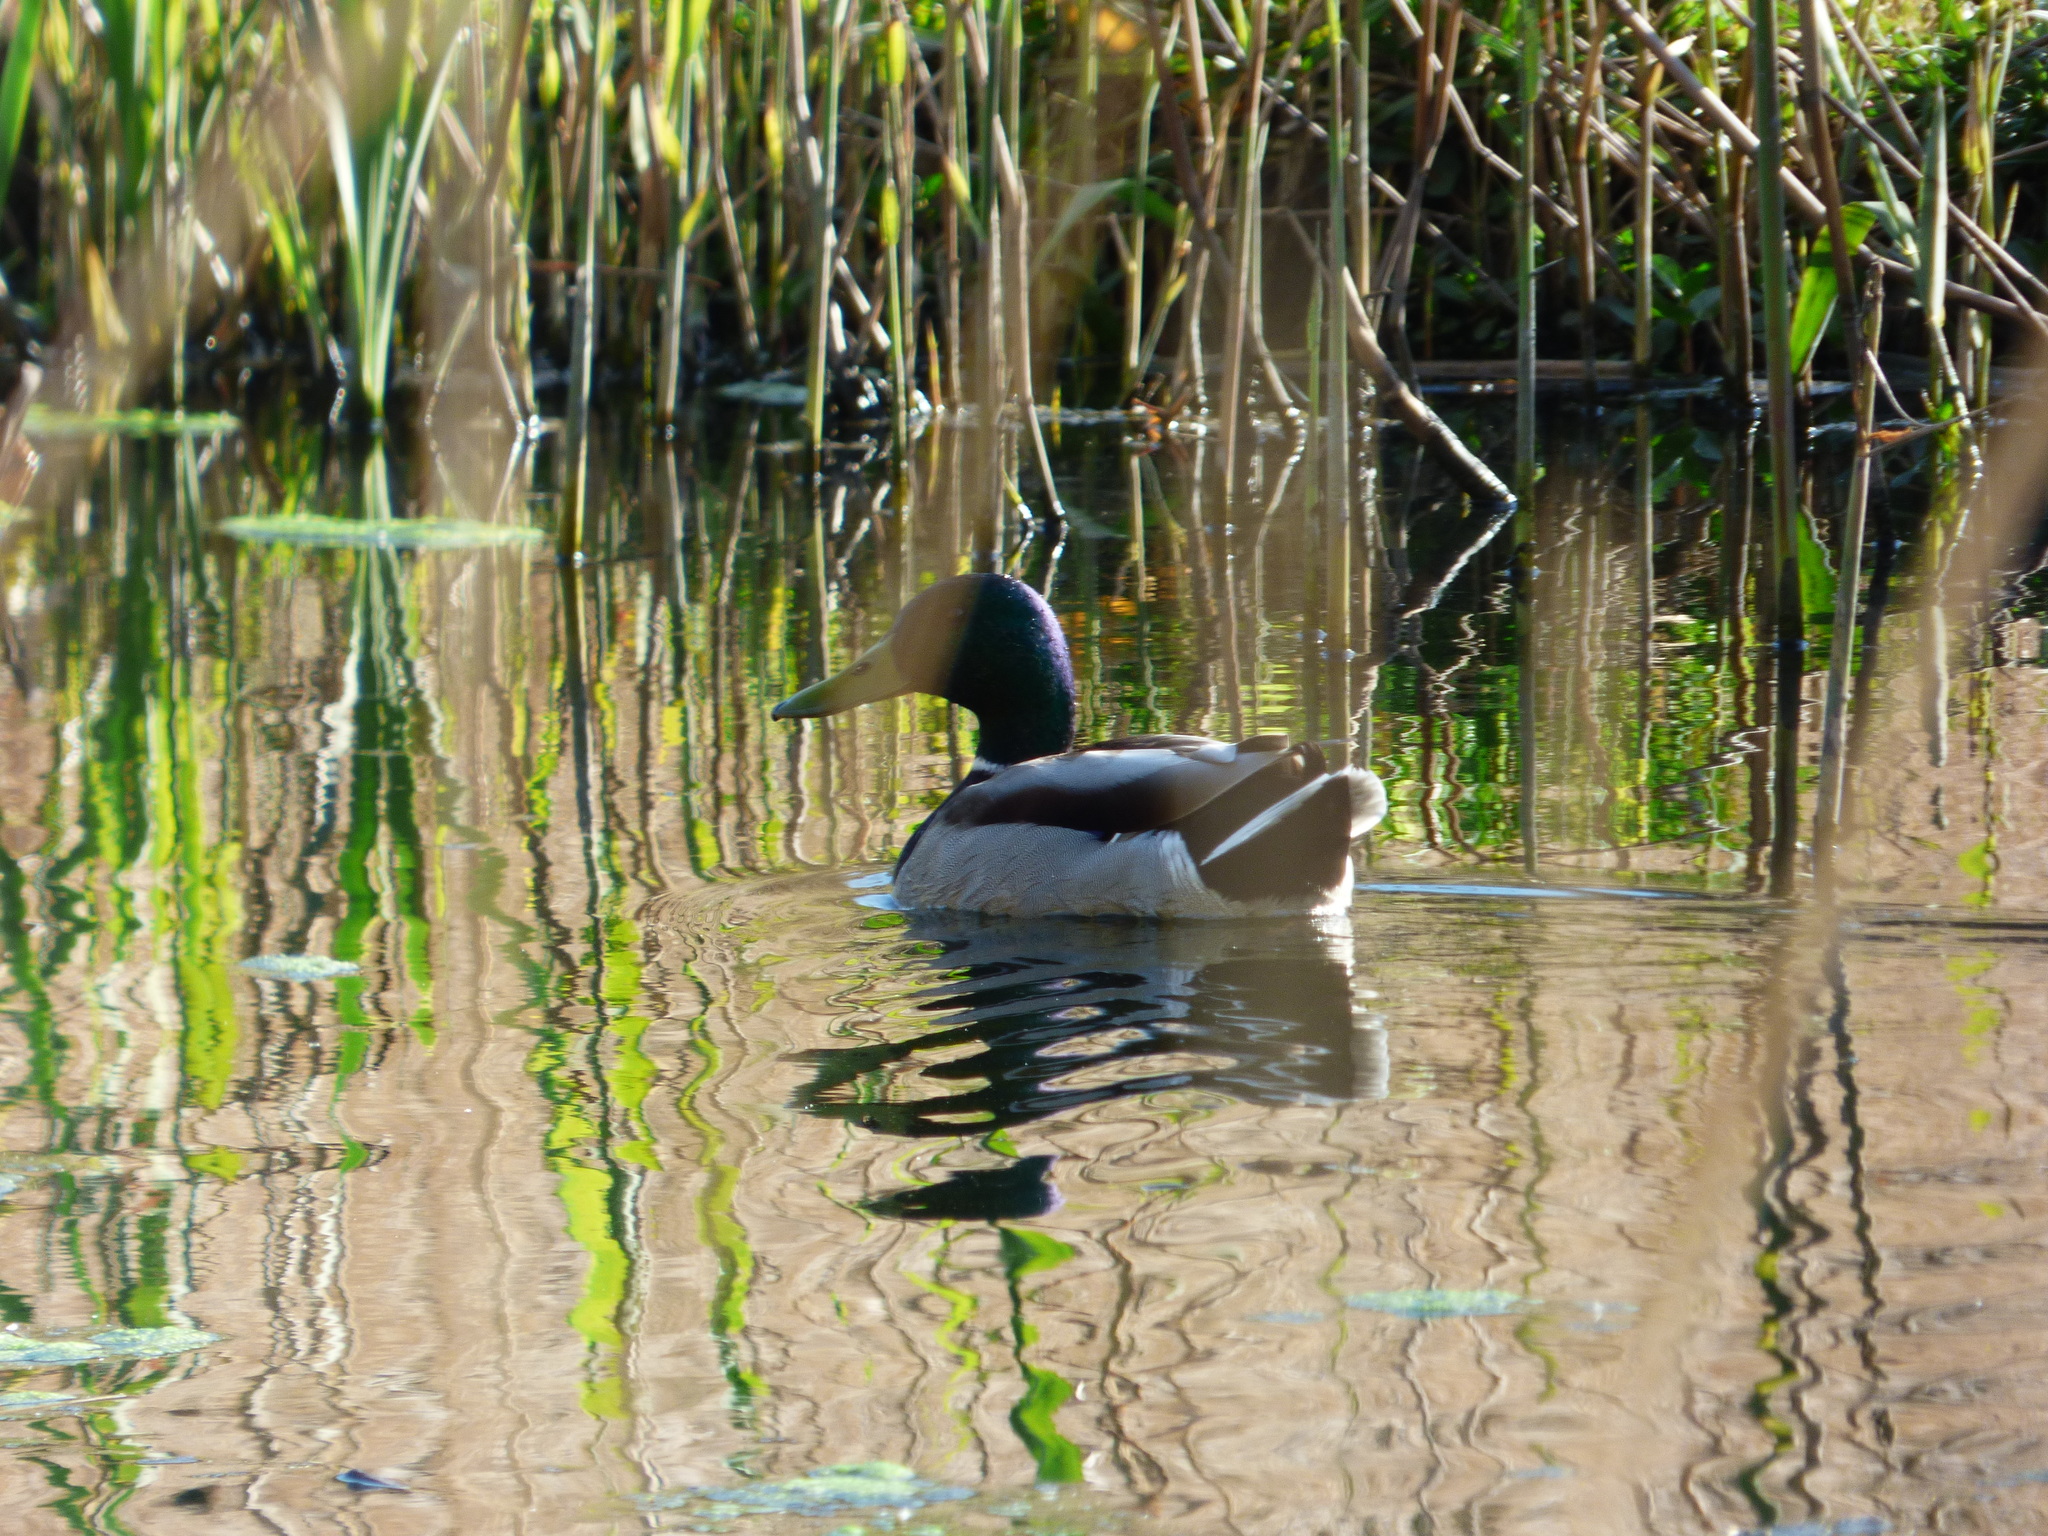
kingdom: Animalia
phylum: Chordata
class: Aves
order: Anseriformes
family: Anatidae
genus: Anas
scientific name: Anas platyrhynchos
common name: Mallard
